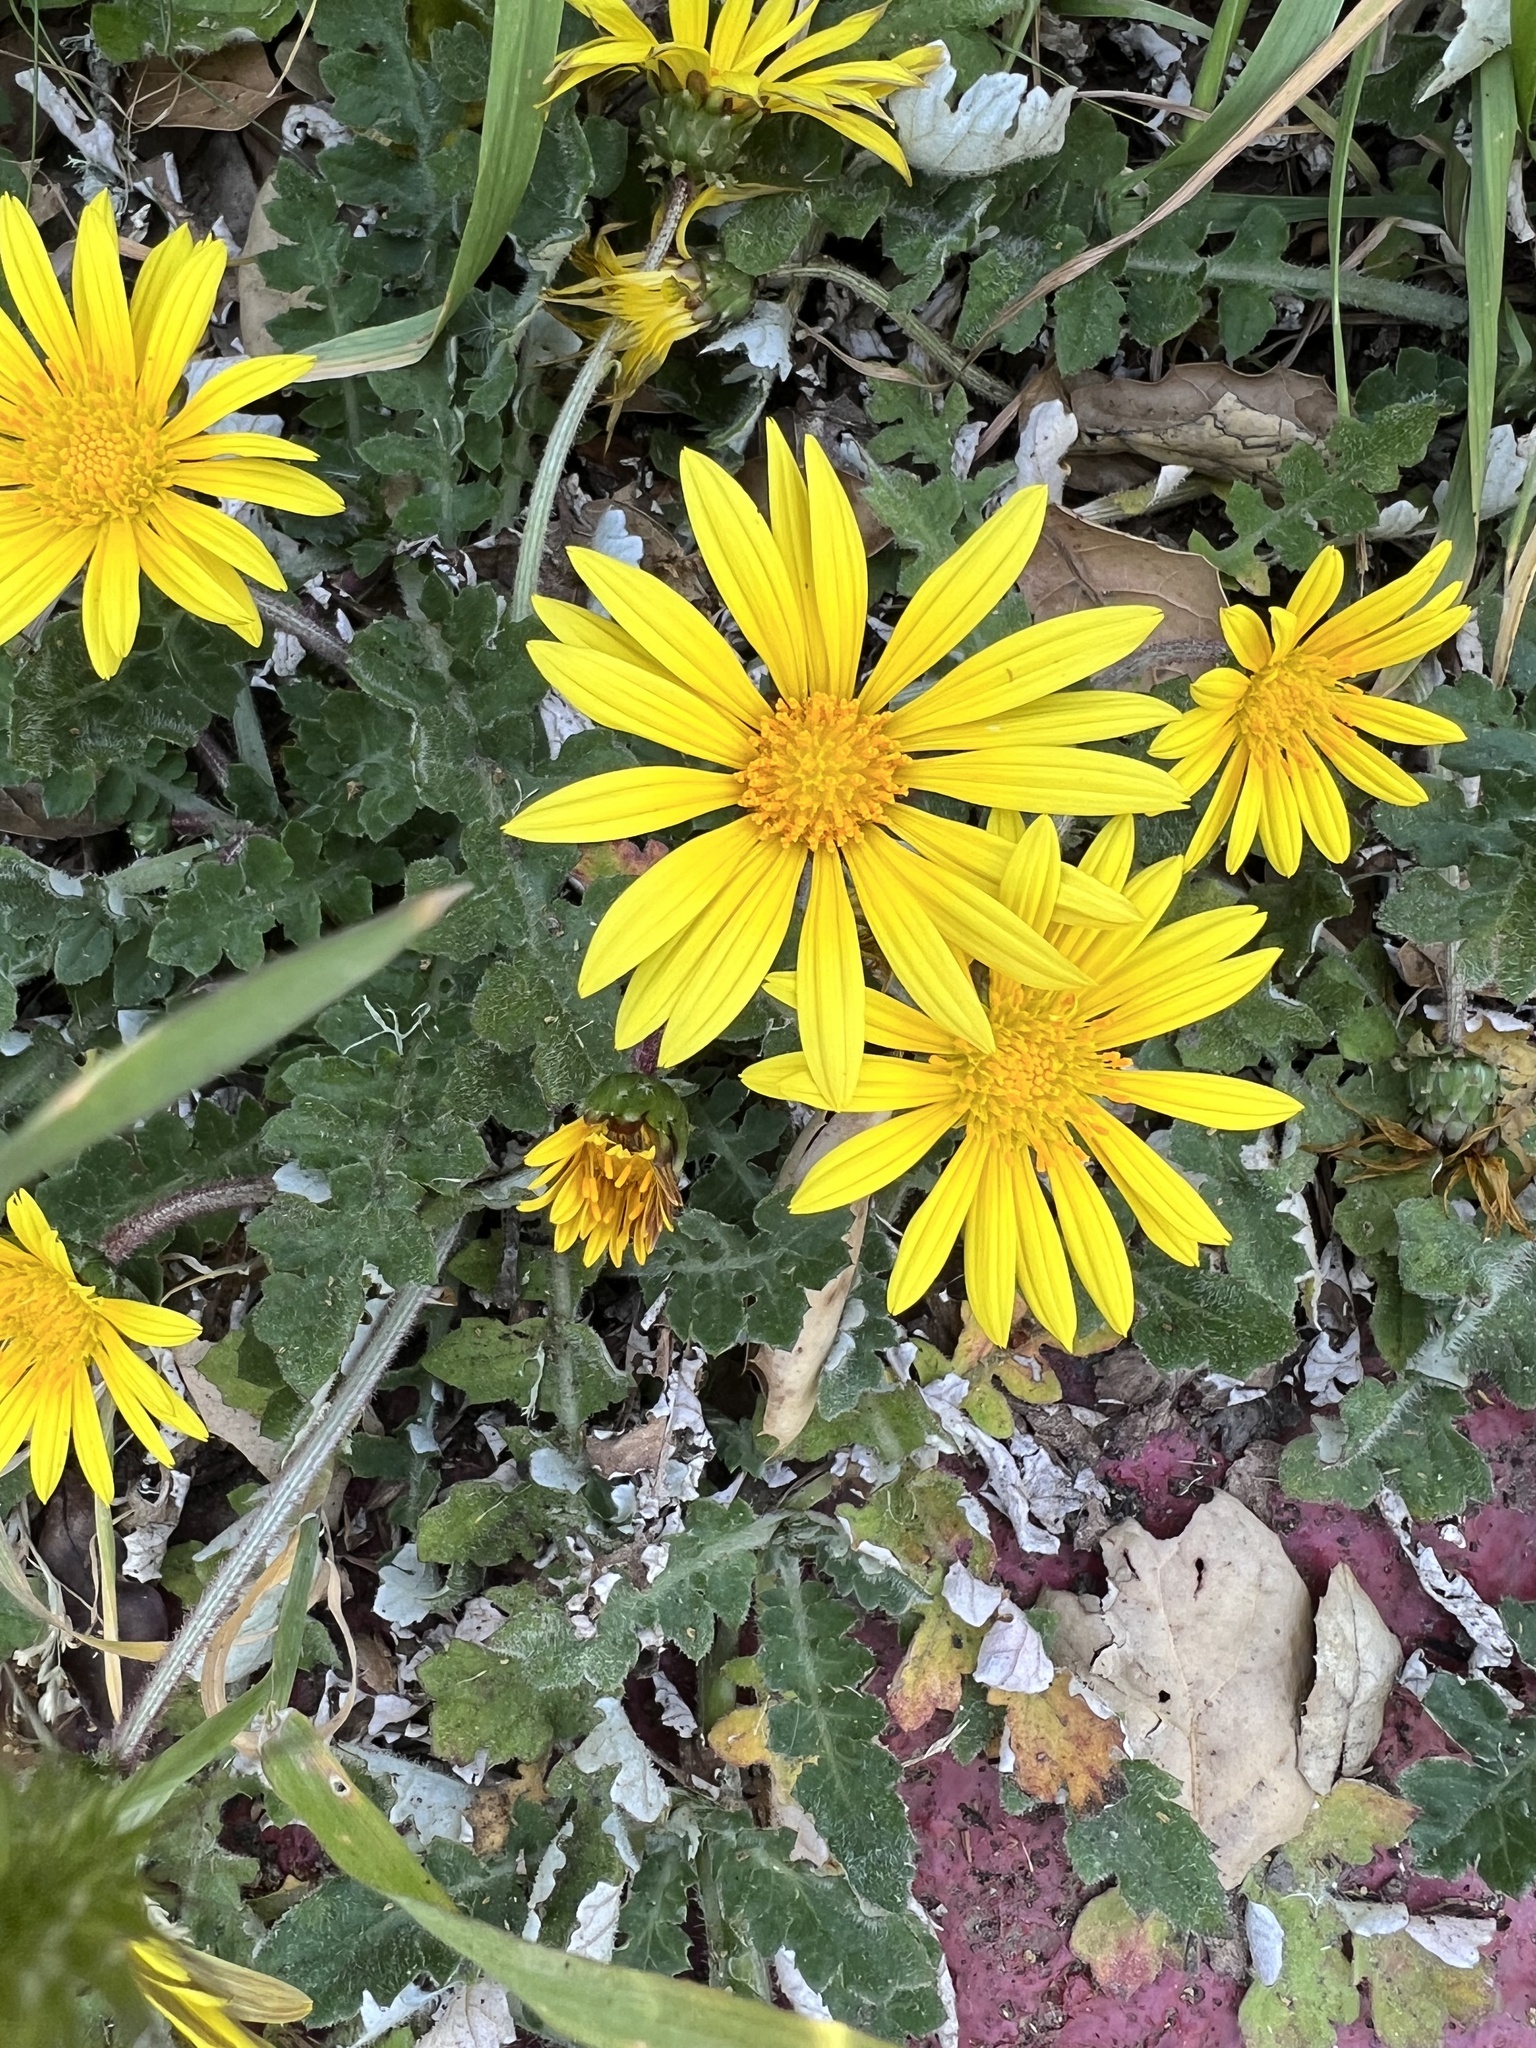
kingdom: Plantae
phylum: Tracheophyta
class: Magnoliopsida
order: Asterales
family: Asteraceae
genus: Arctotheca
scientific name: Arctotheca prostrata
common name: Capeweed
